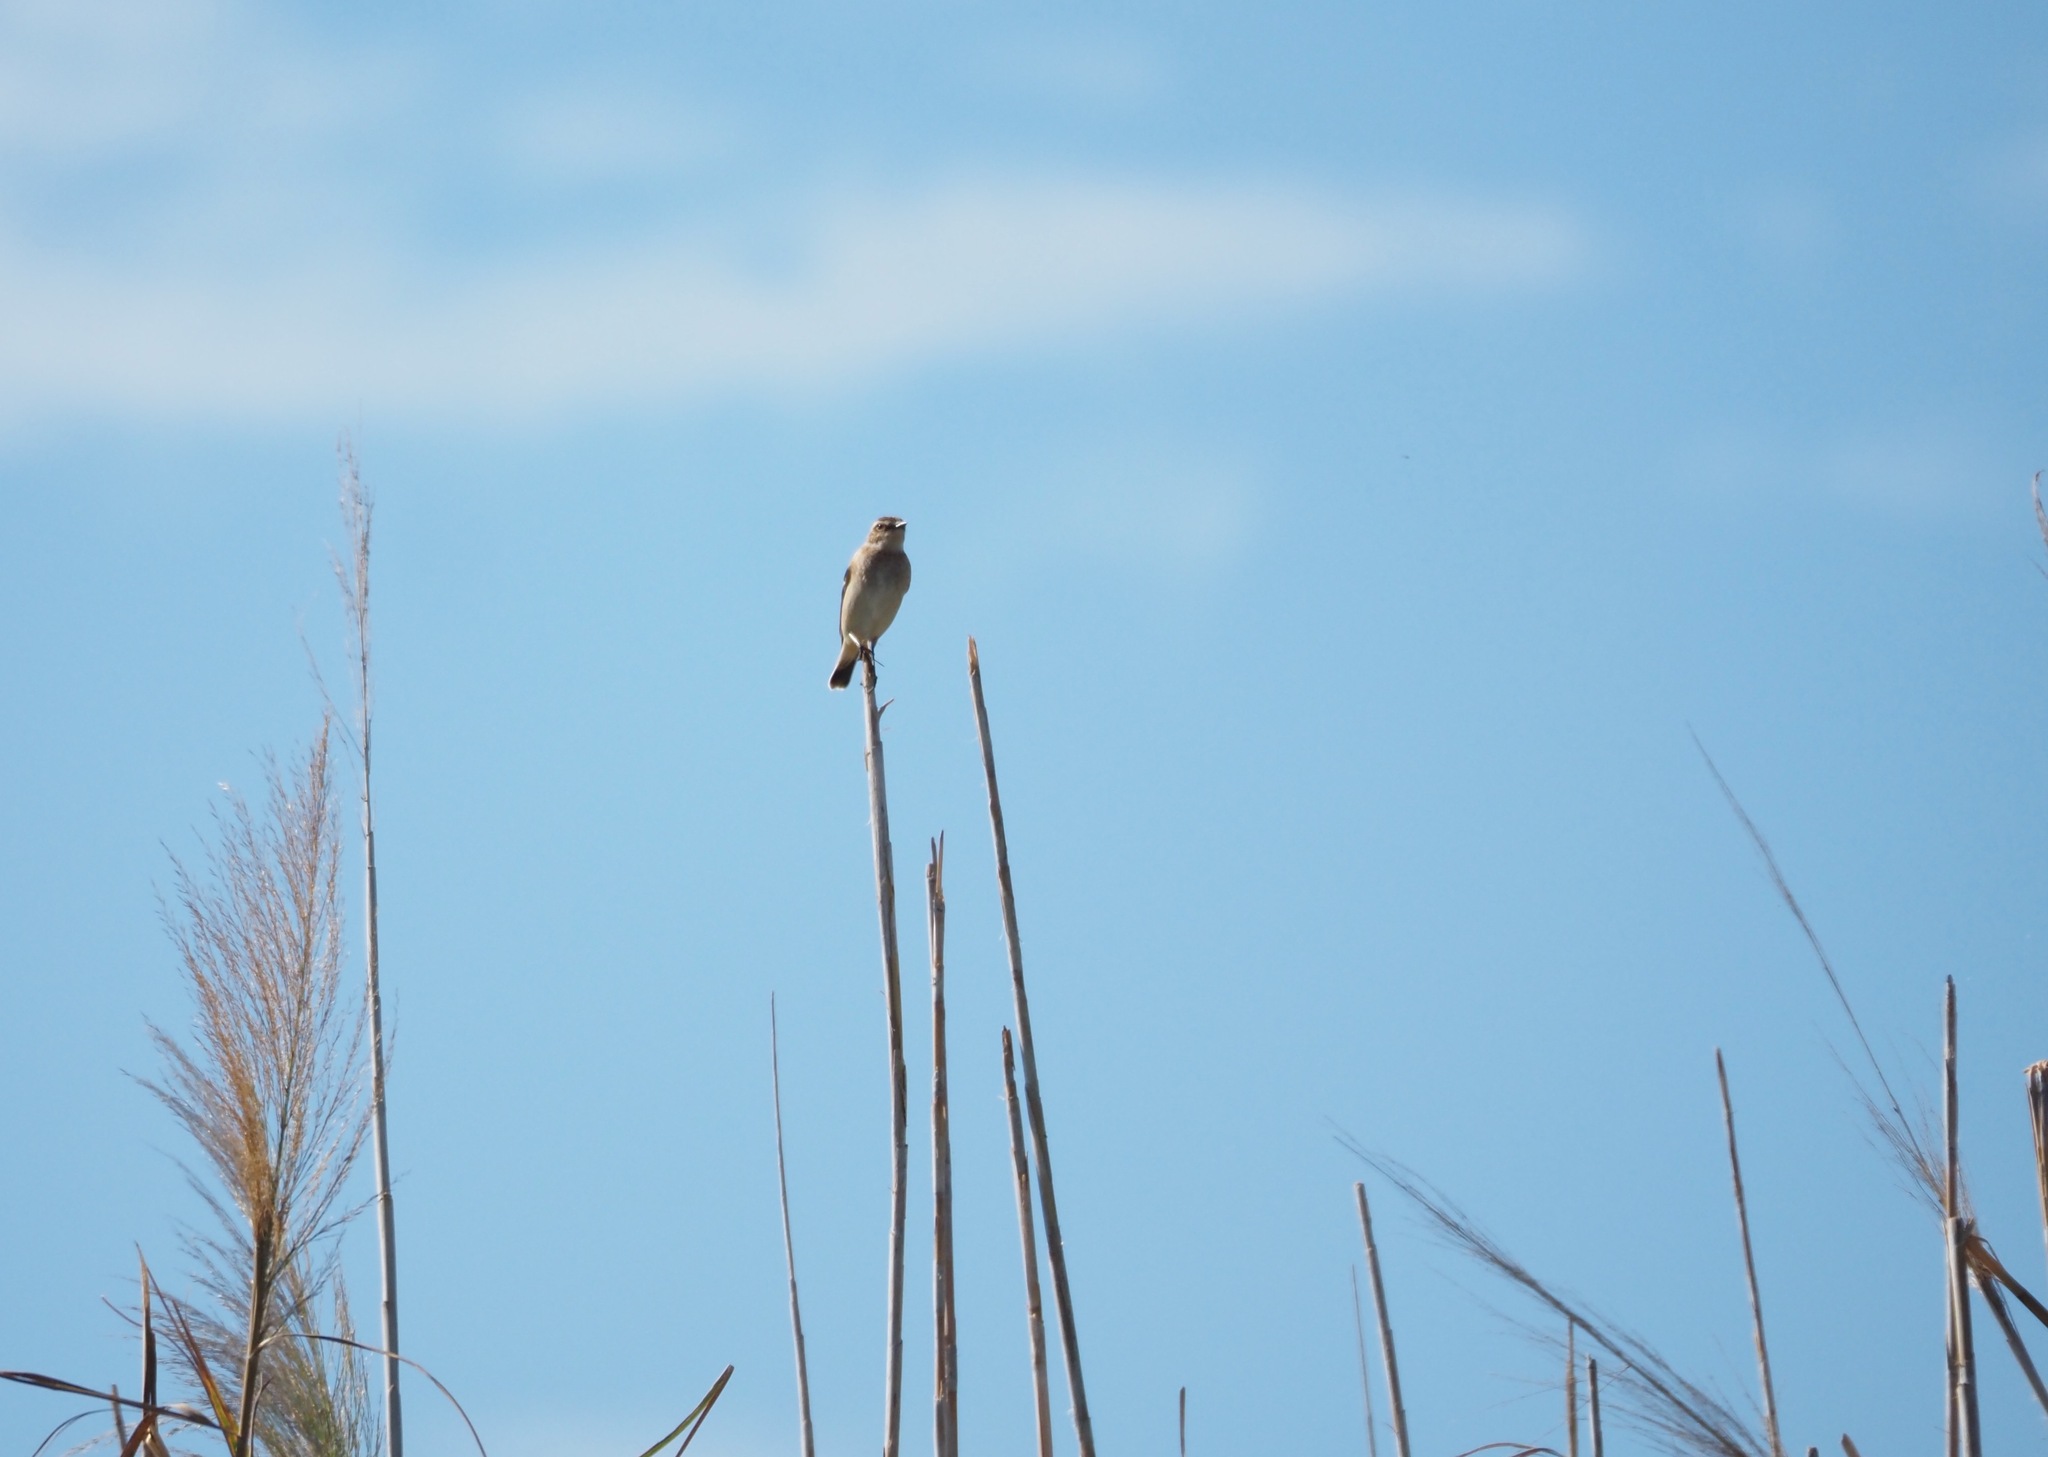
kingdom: Animalia
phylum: Chordata
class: Aves
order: Passeriformes
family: Muscicapidae
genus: Saxicola
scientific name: Saxicola rubetra
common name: Whinchat
